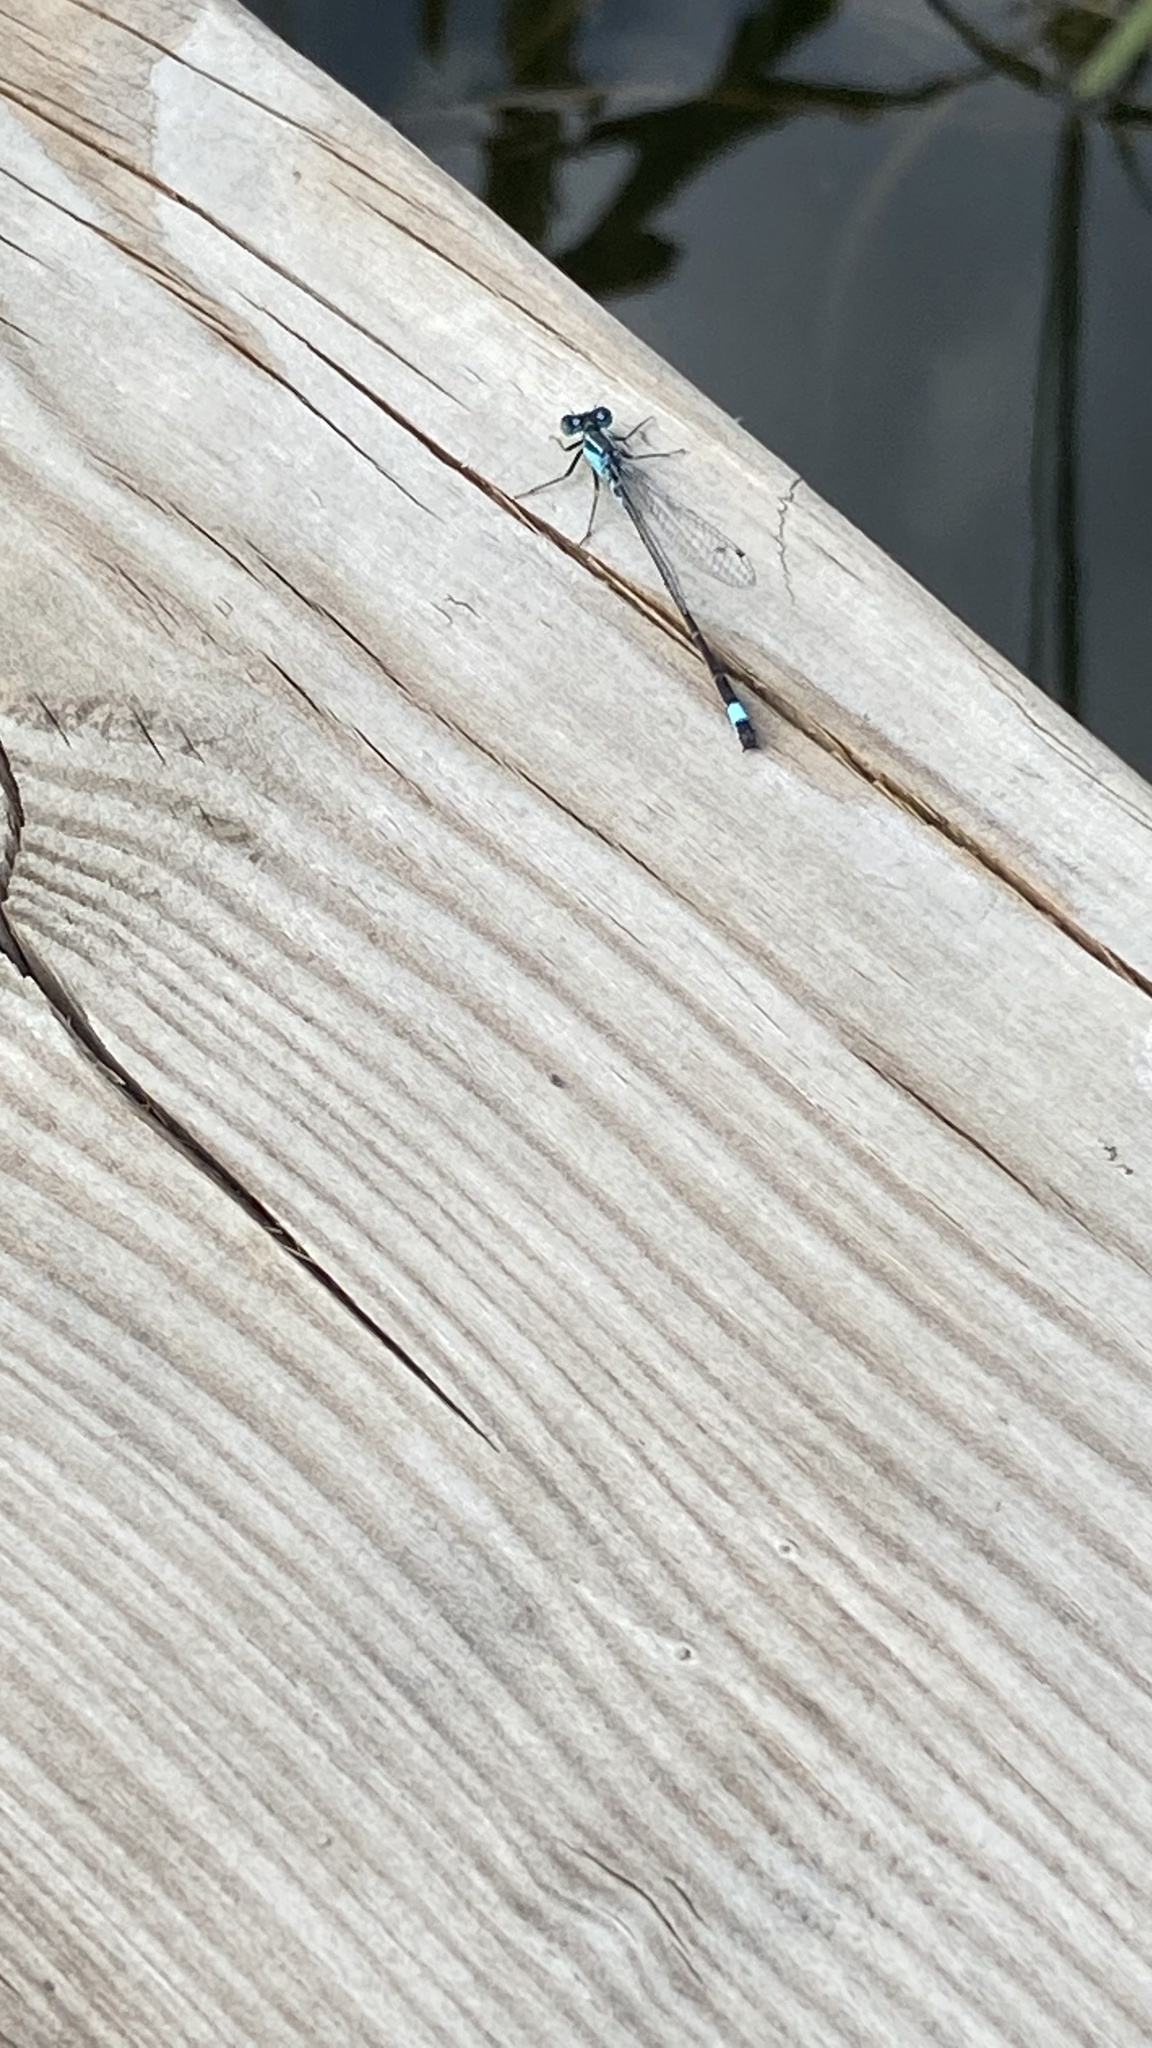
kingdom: Animalia
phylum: Arthropoda
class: Insecta
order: Odonata
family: Coenagrionidae
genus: Ischnura
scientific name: Ischnura elegans
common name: Blue-tailed damselfly
